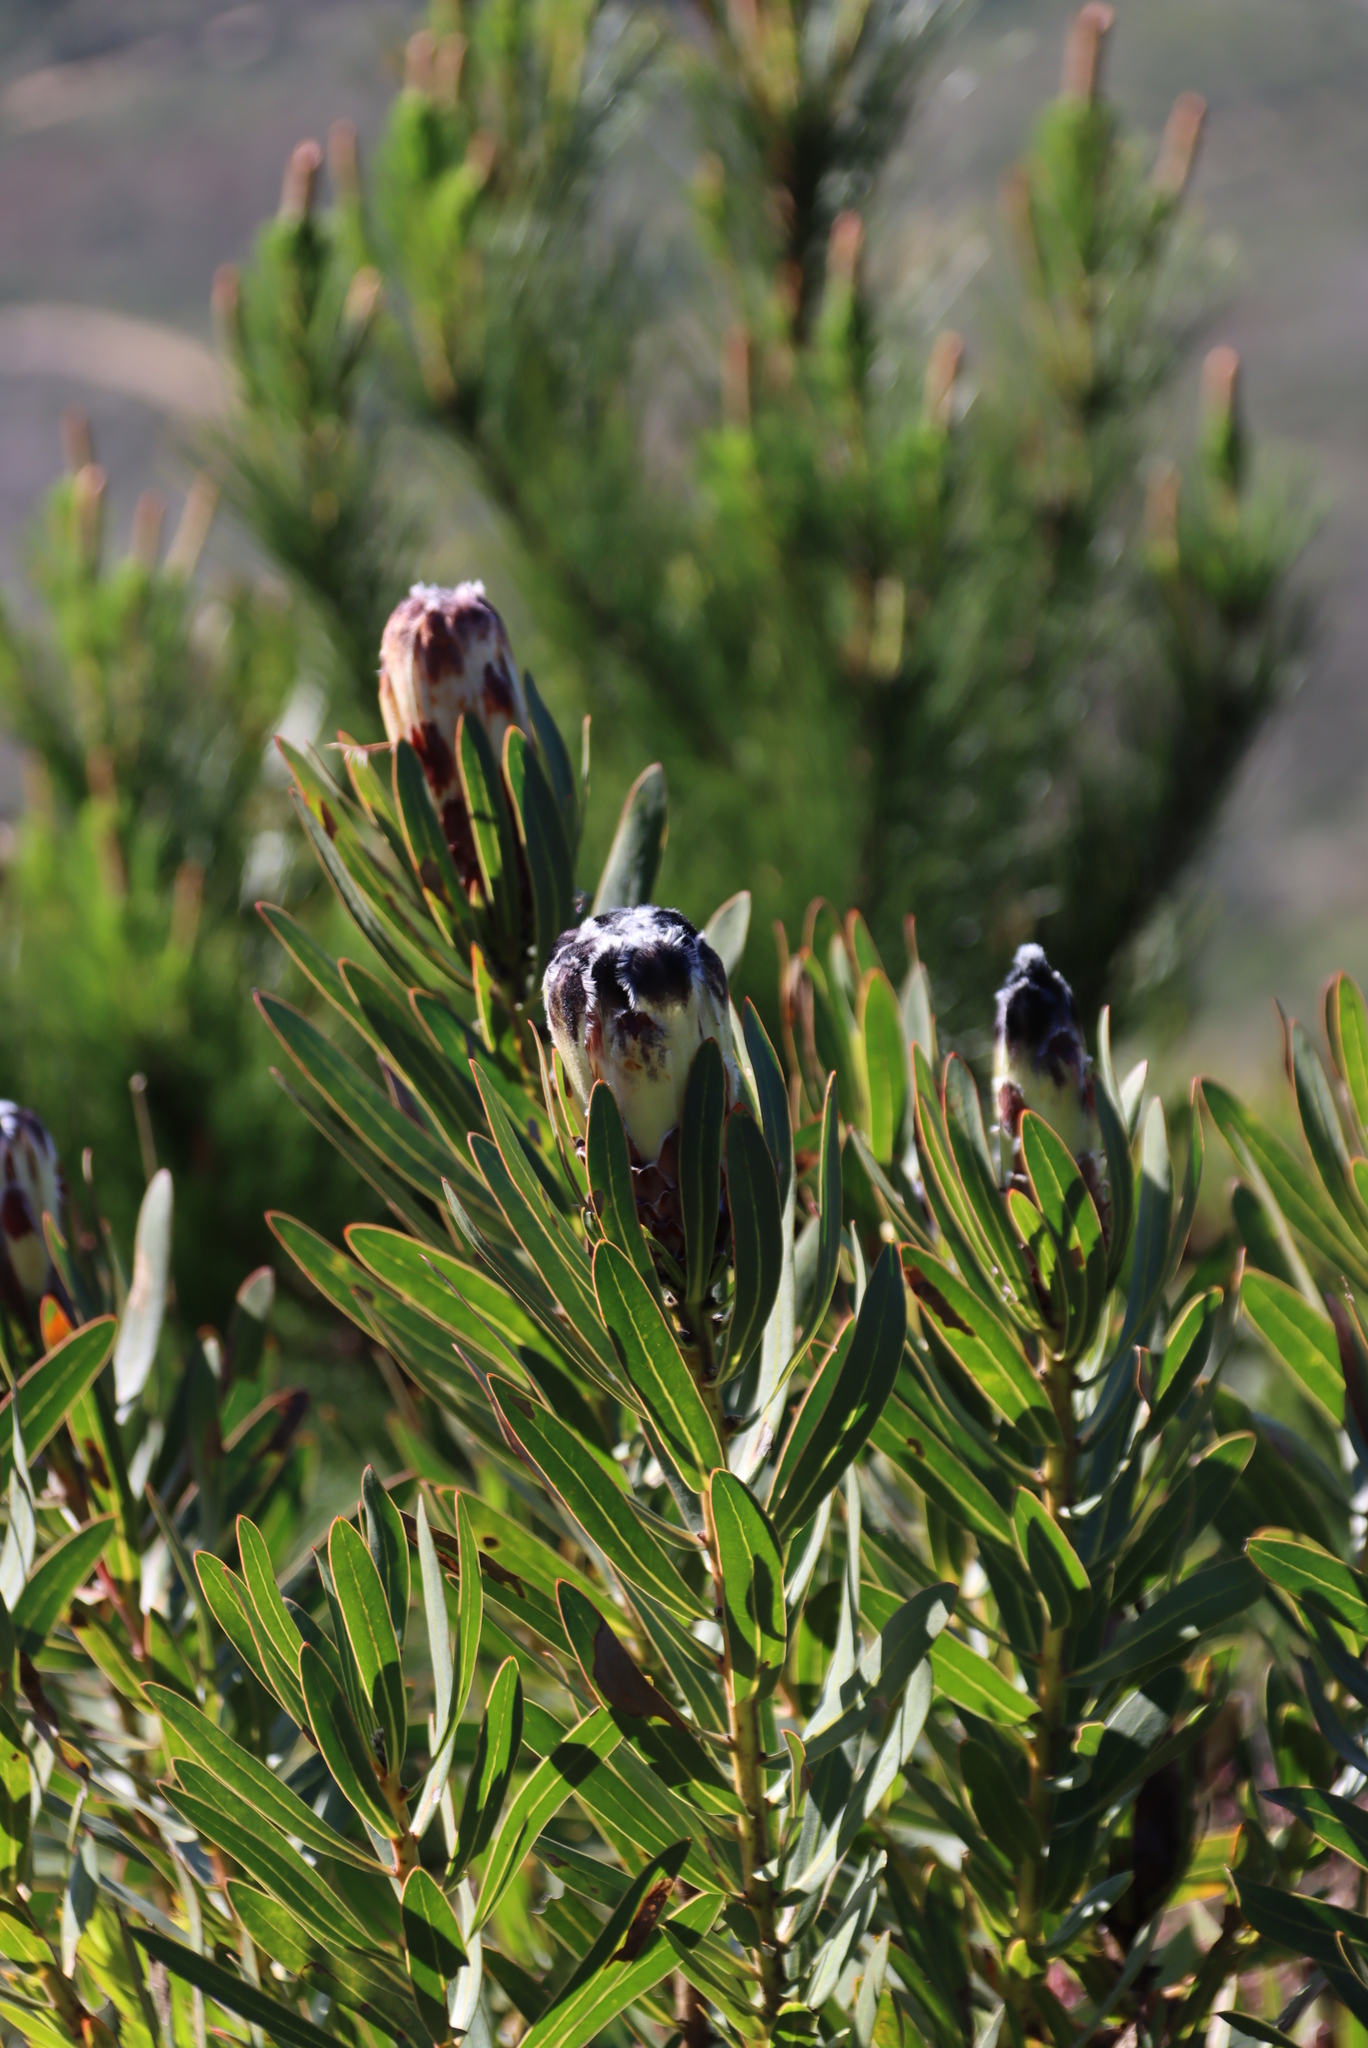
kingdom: Plantae
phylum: Tracheophyta
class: Magnoliopsida
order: Proteales
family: Proteaceae
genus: Protea
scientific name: Protea lepidocarpodendron
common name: Black-bearded protea
